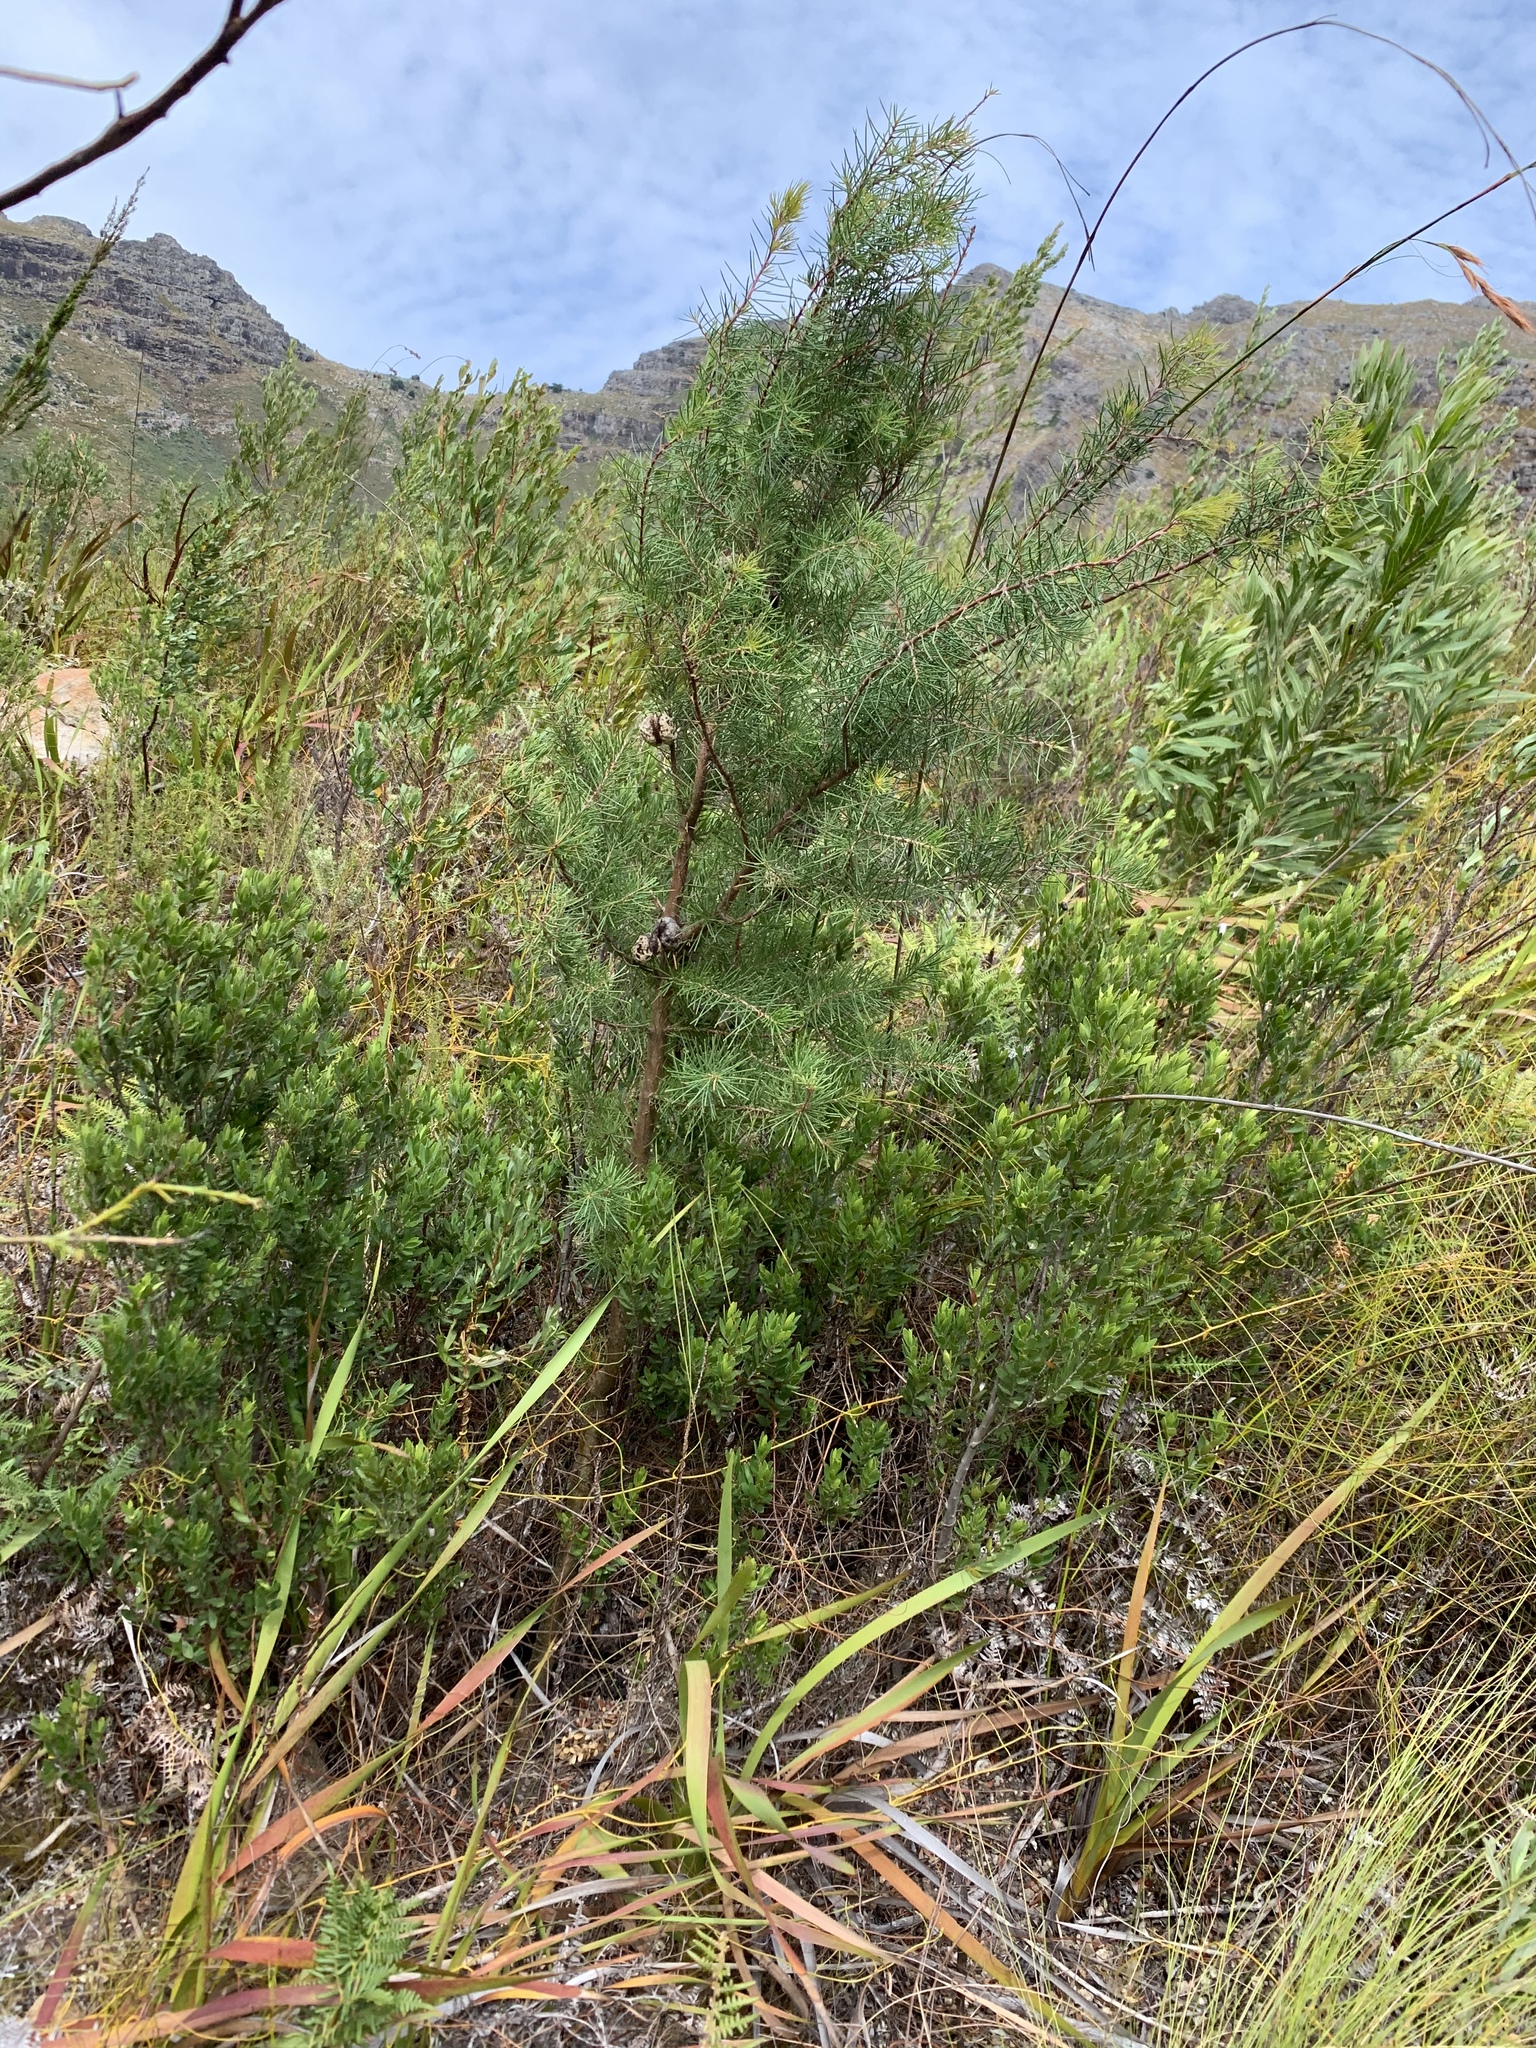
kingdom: Plantae
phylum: Tracheophyta
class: Magnoliopsida
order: Proteales
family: Proteaceae
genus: Hakea
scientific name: Hakea sericea
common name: Needle bush
